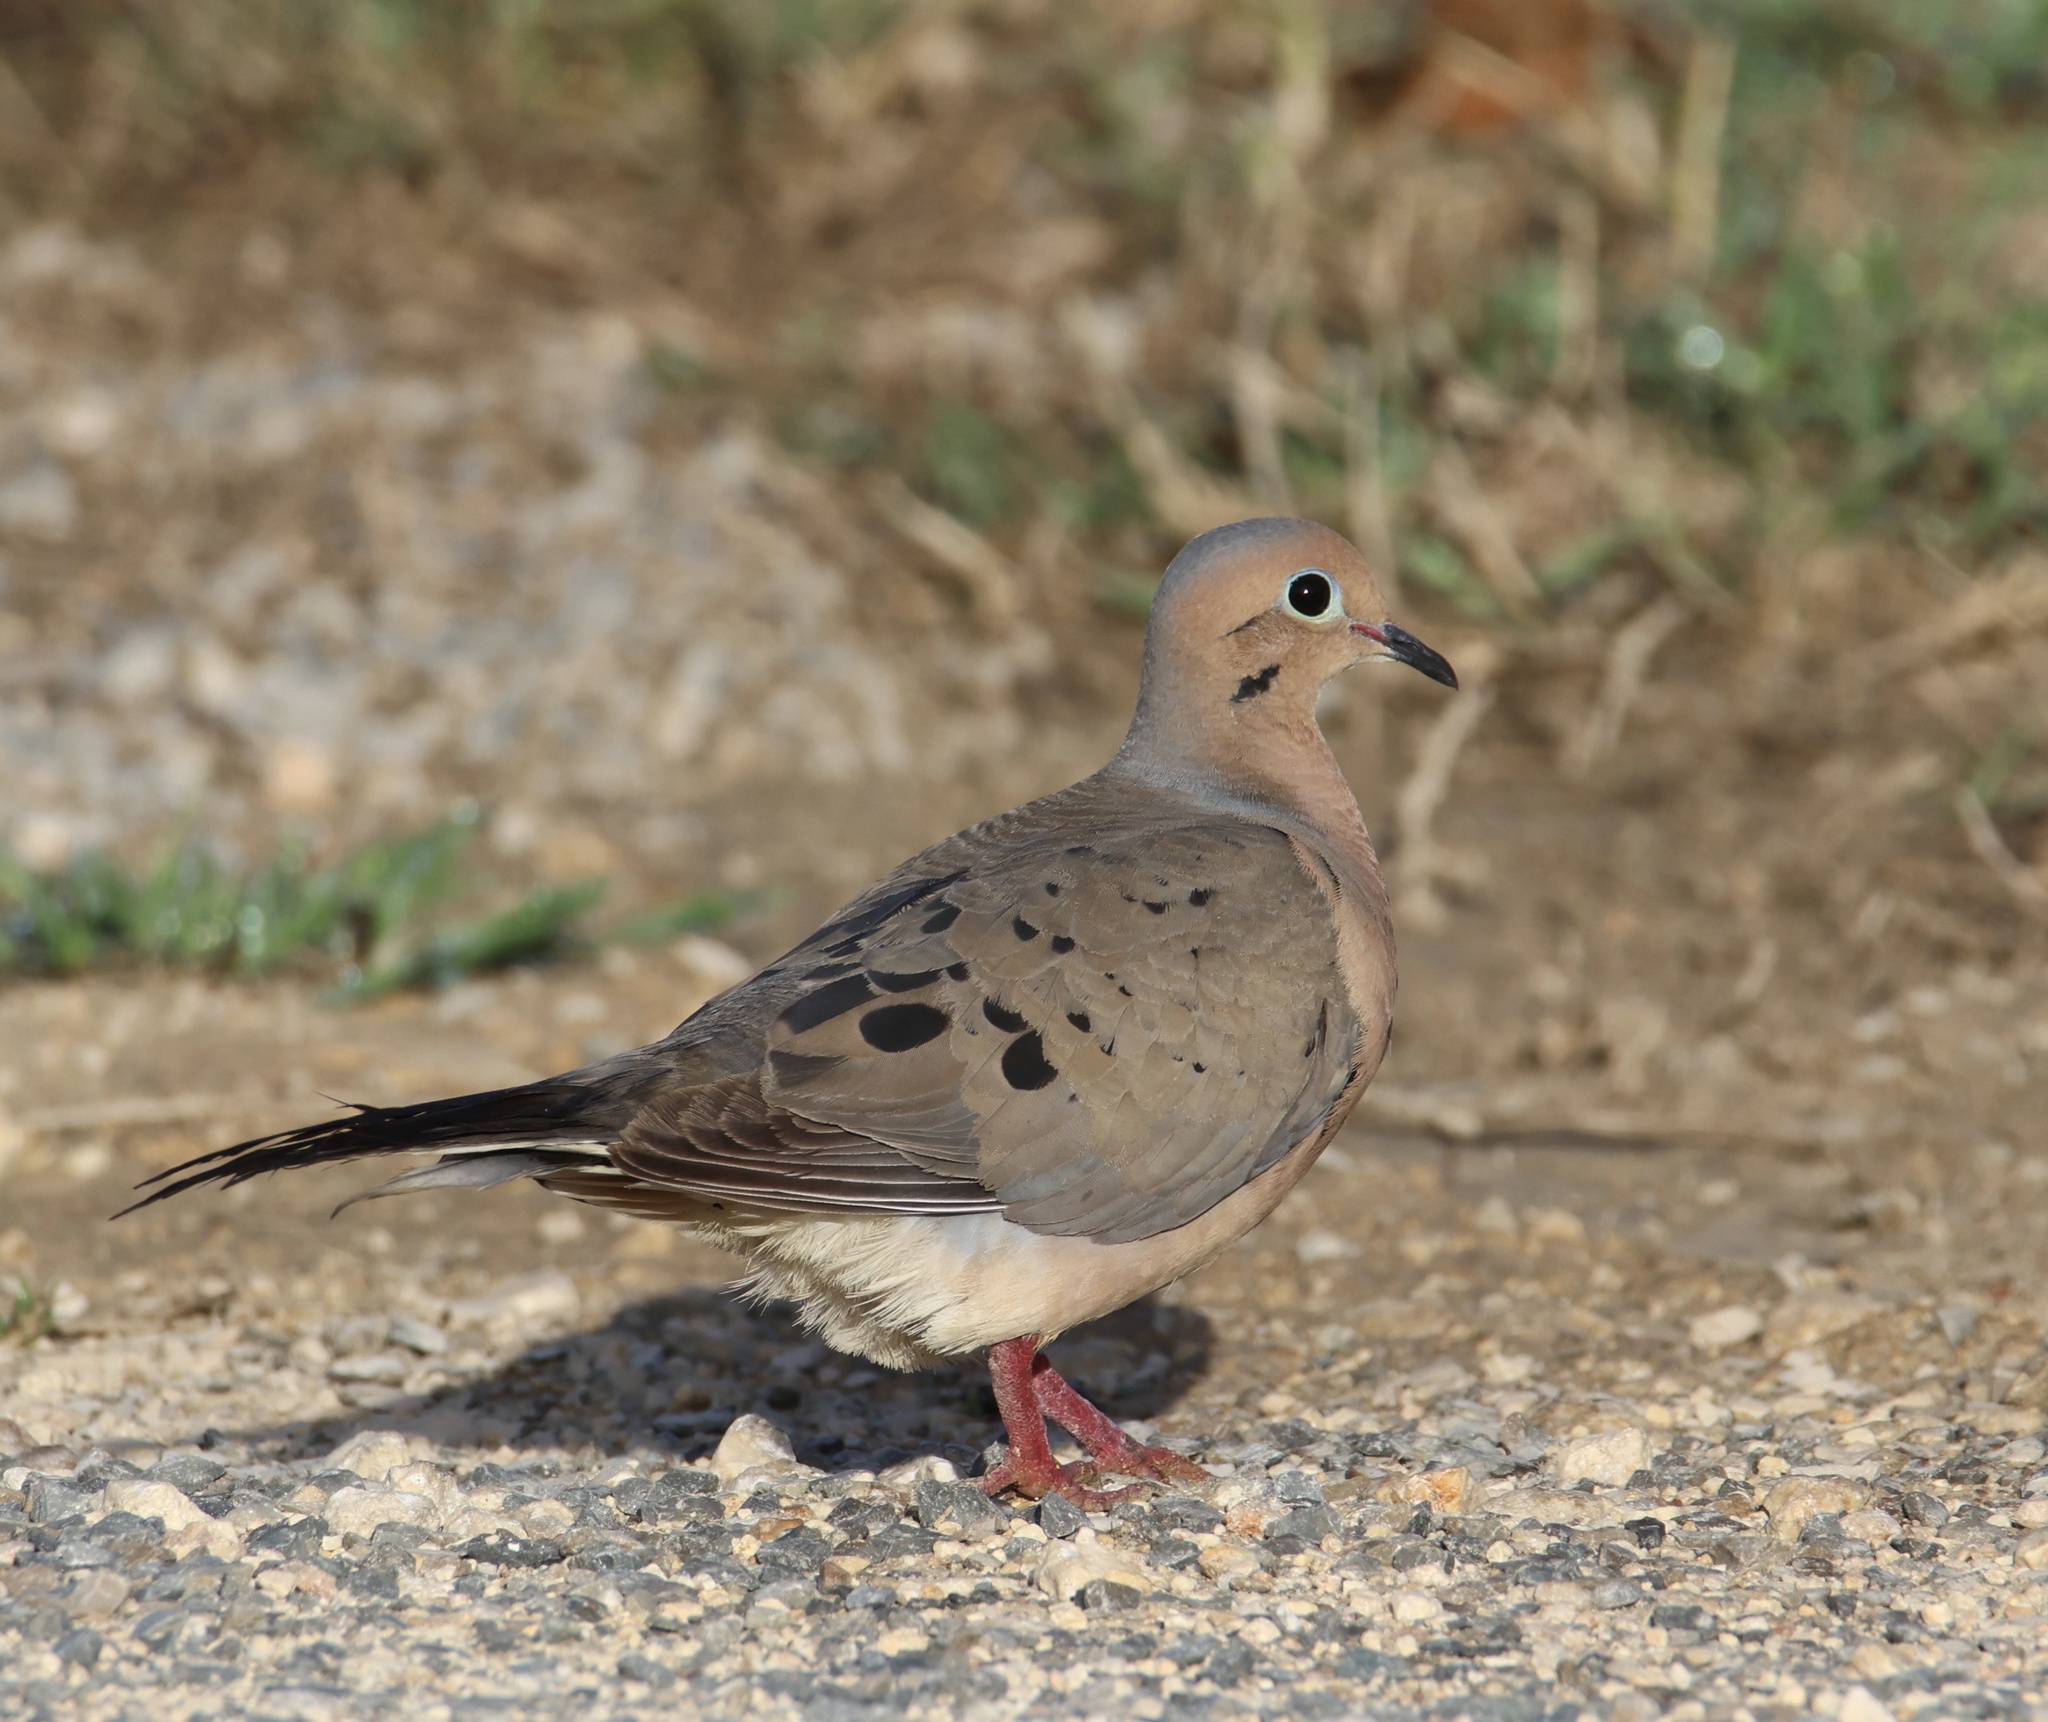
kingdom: Animalia
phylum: Chordata
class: Aves
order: Columbiformes
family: Columbidae
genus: Zenaida
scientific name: Zenaida macroura
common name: Mourning dove
